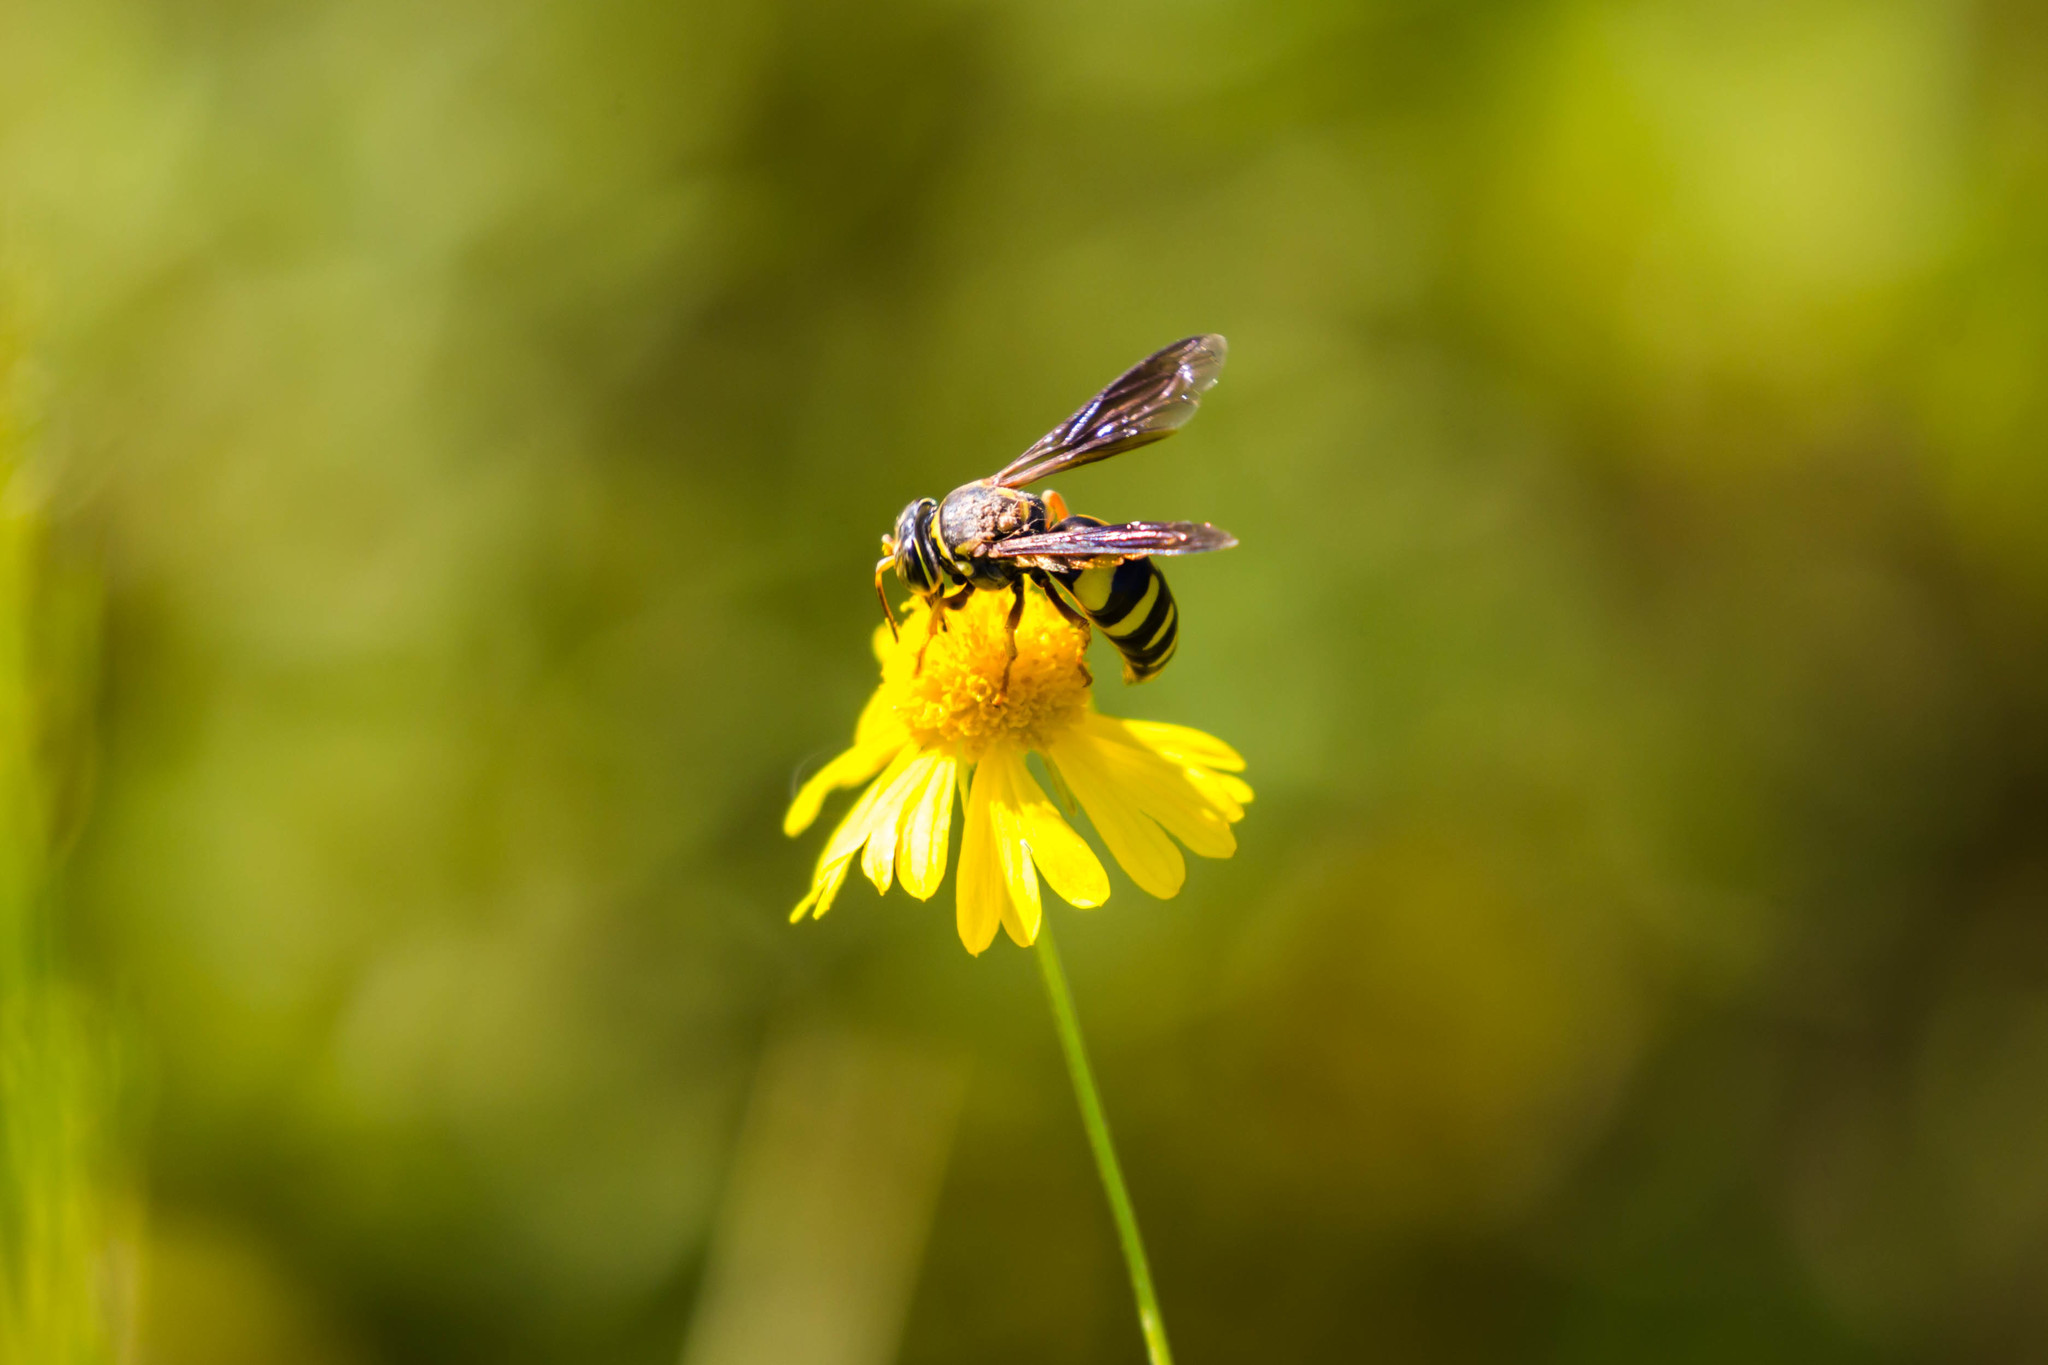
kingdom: Animalia
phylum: Arthropoda
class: Insecta
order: Hymenoptera
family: Crabronidae
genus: Bicyrtes
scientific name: Bicyrtes insidiatrix
